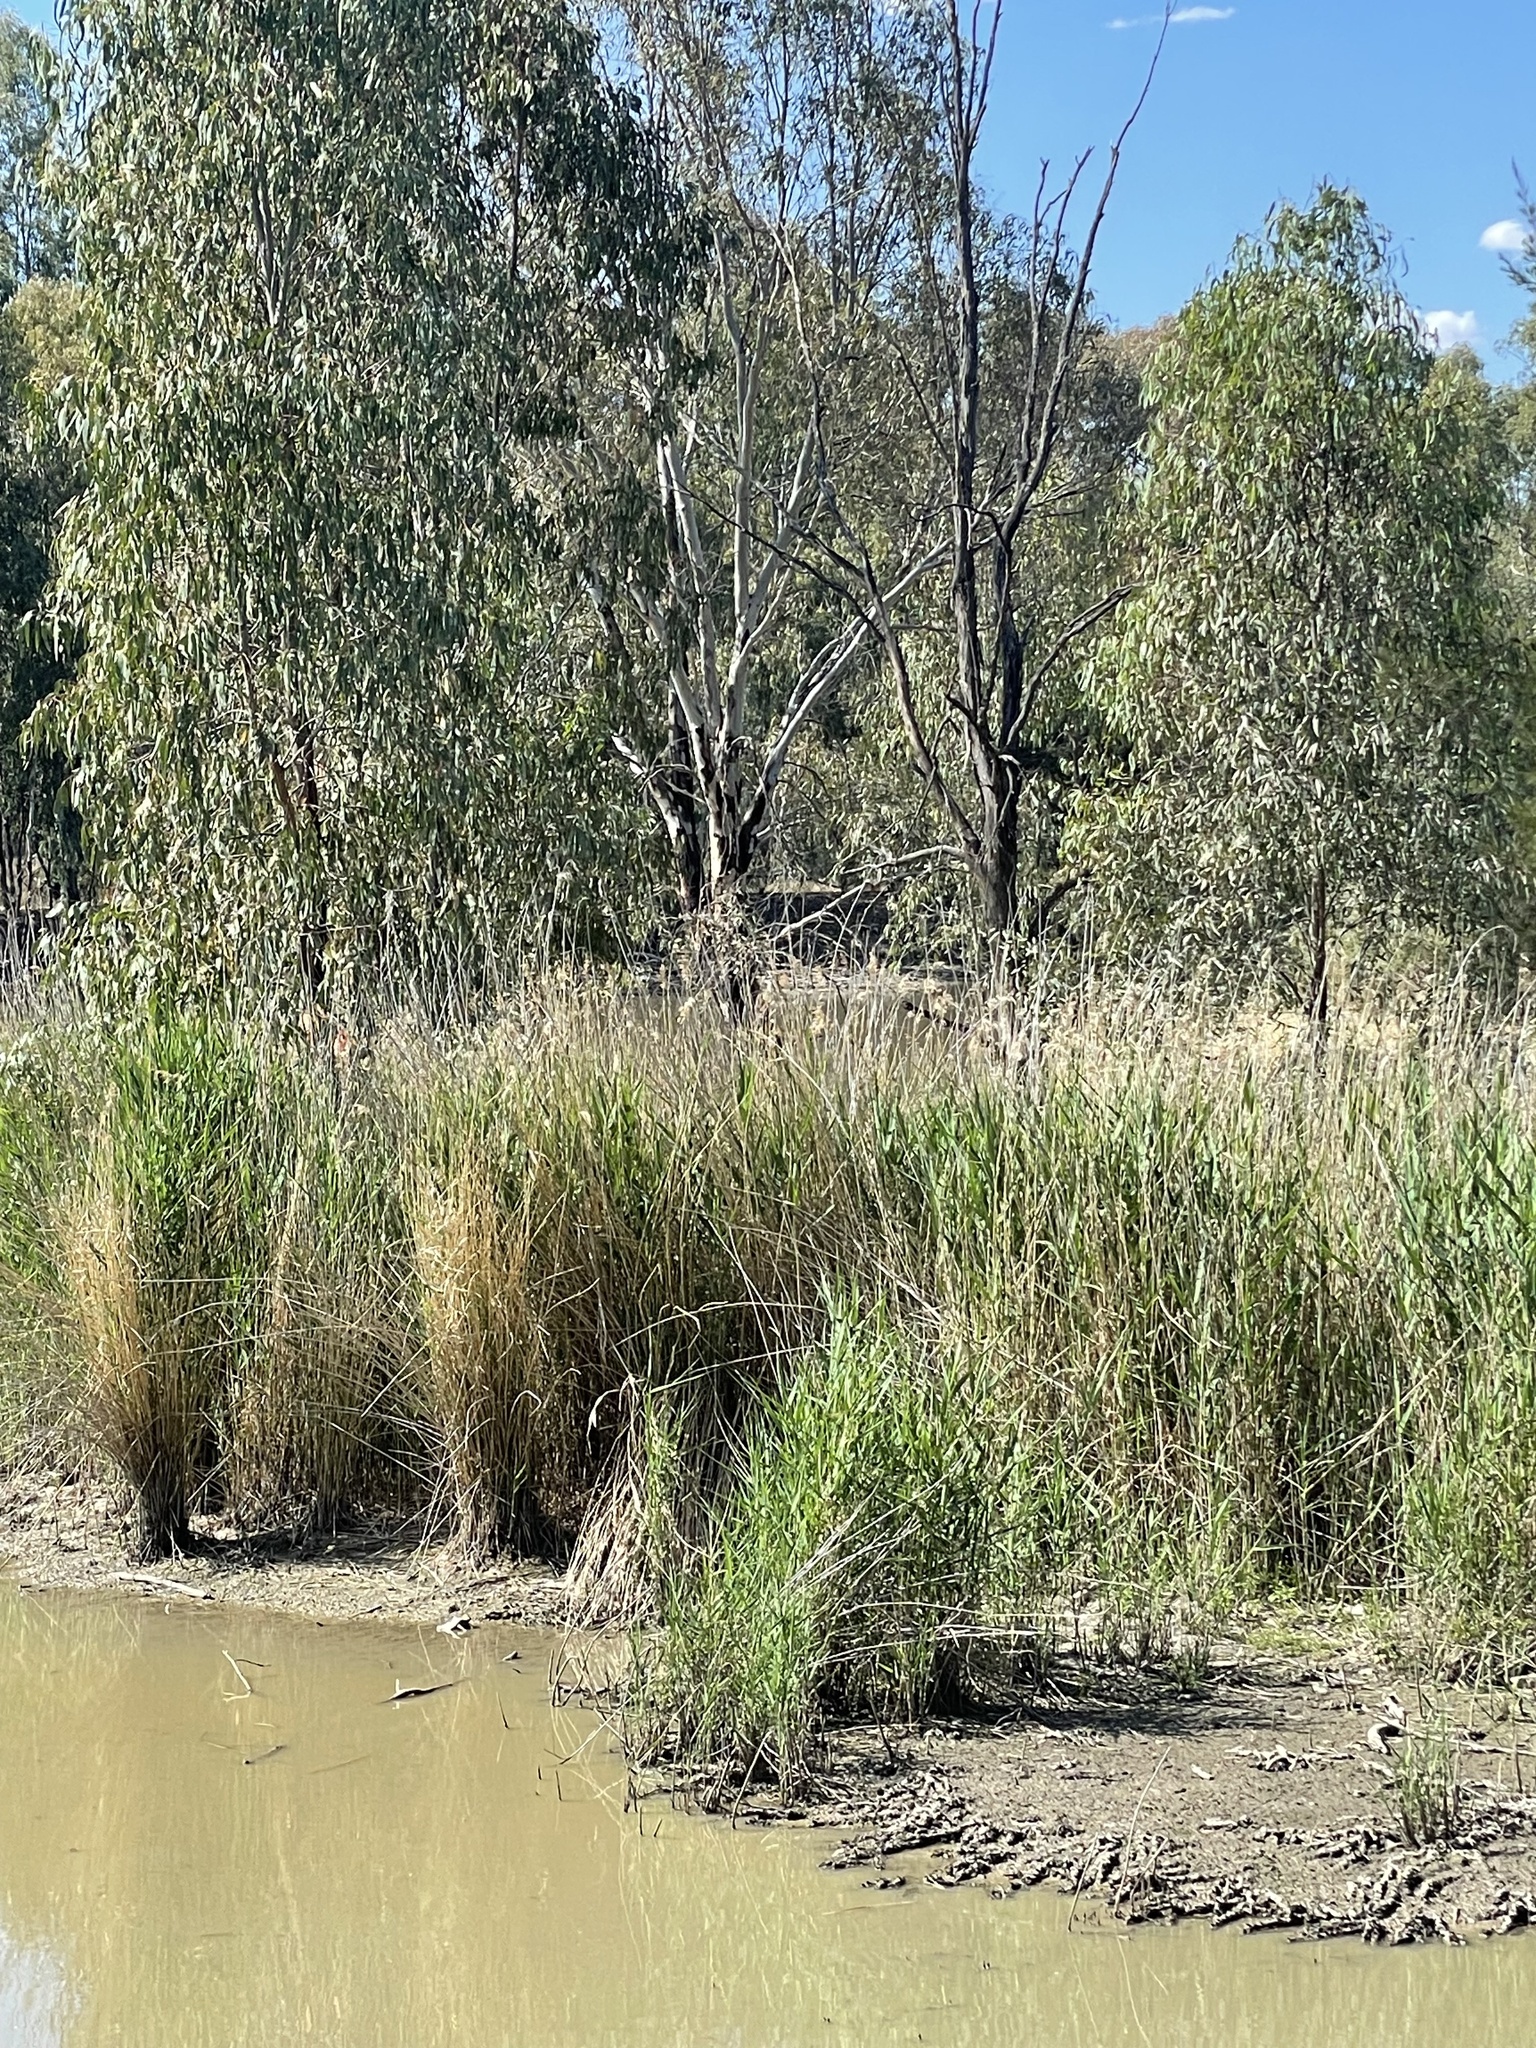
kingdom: Plantae
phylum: Tracheophyta
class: Liliopsida
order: Poales
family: Poaceae
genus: Phragmites
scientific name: Phragmites australis
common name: Common reed
